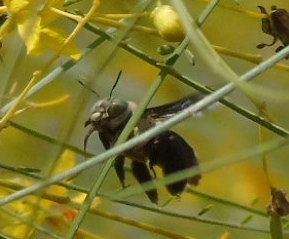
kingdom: Animalia
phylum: Arthropoda
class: Insecta
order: Hymenoptera
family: Apidae
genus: Centris
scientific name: Centris
